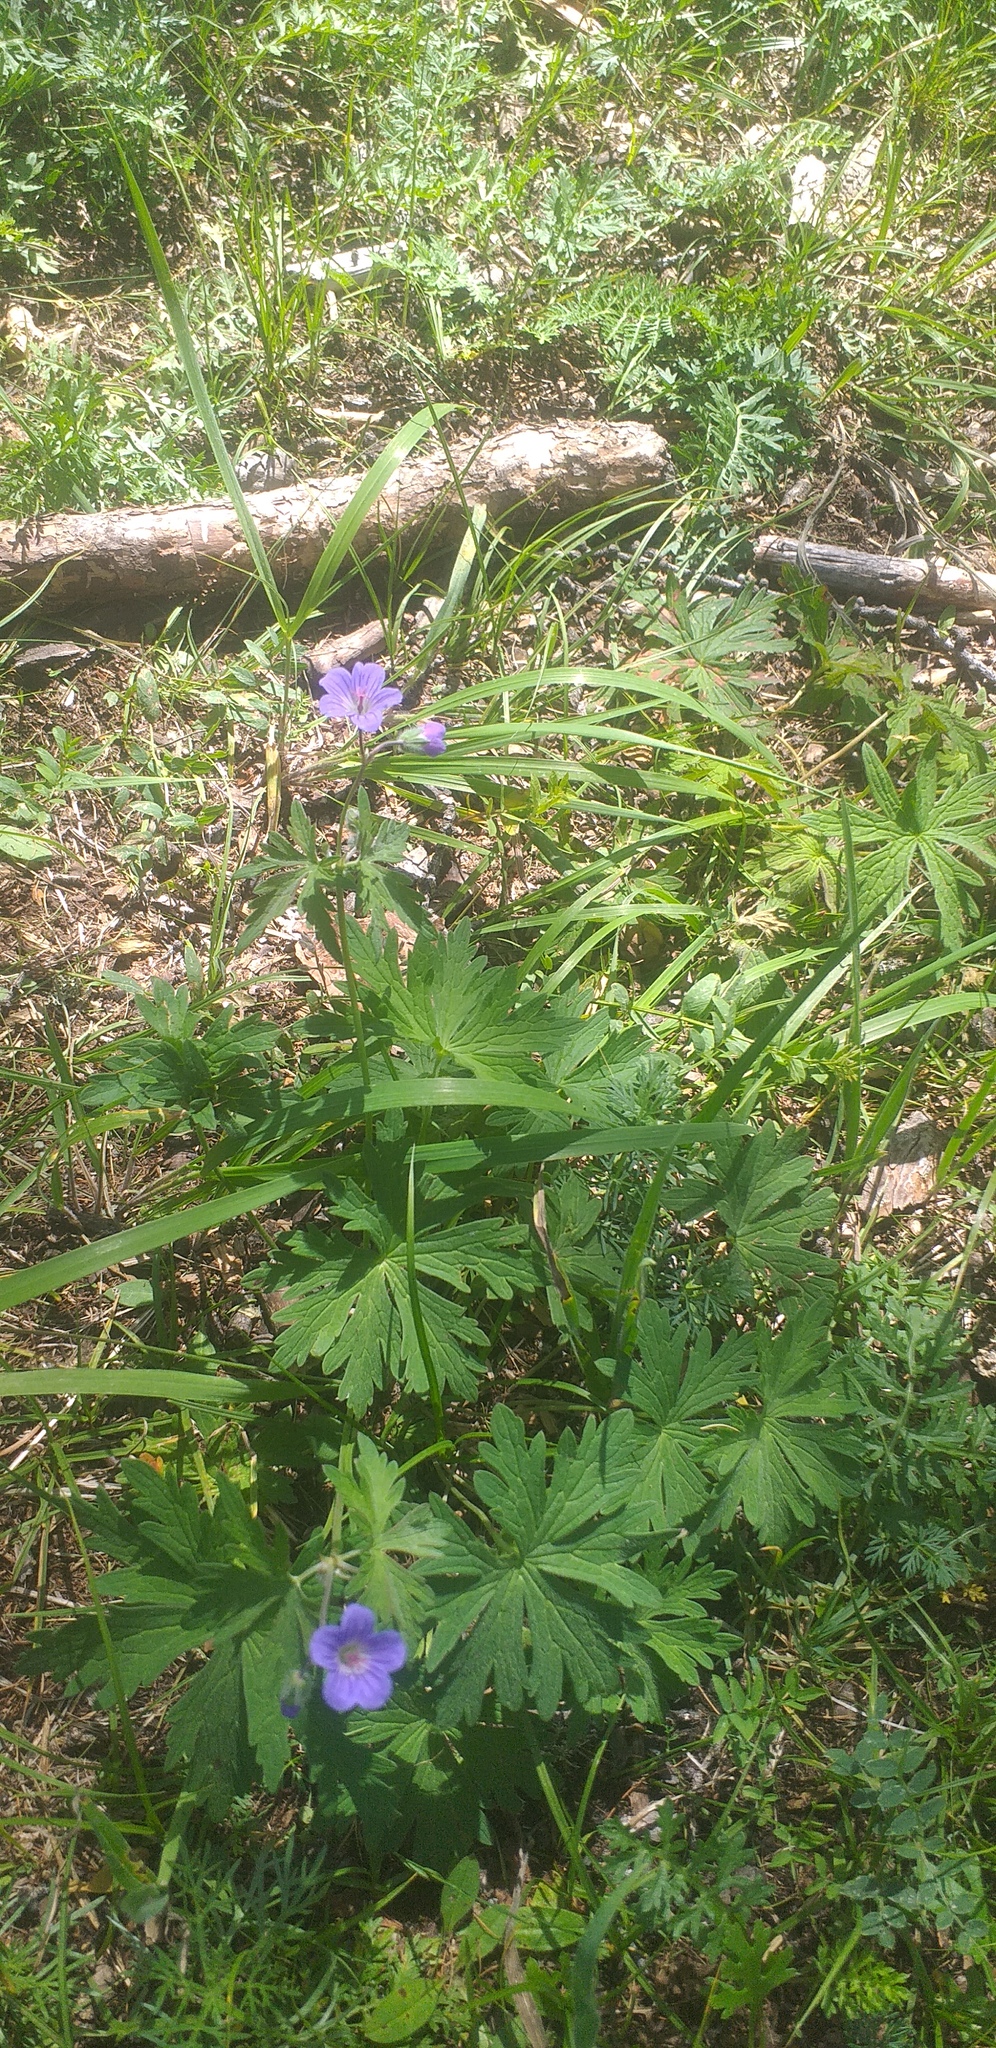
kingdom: Plantae
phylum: Tracheophyta
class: Magnoliopsida
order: Geraniales
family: Geraniaceae
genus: Geranium
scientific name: Geranium pseudosibiricum
